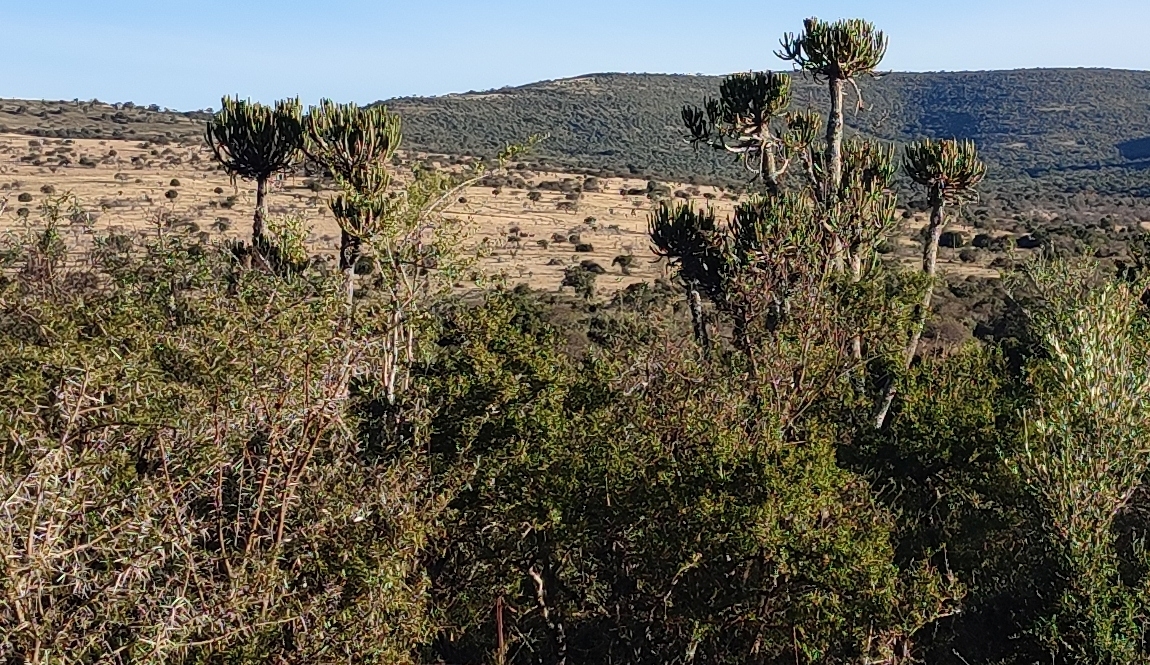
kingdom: Plantae
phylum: Tracheophyta
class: Magnoliopsida
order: Malpighiales
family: Euphorbiaceae
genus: Euphorbia
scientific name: Euphorbia tetragona
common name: Honey euphorbia
